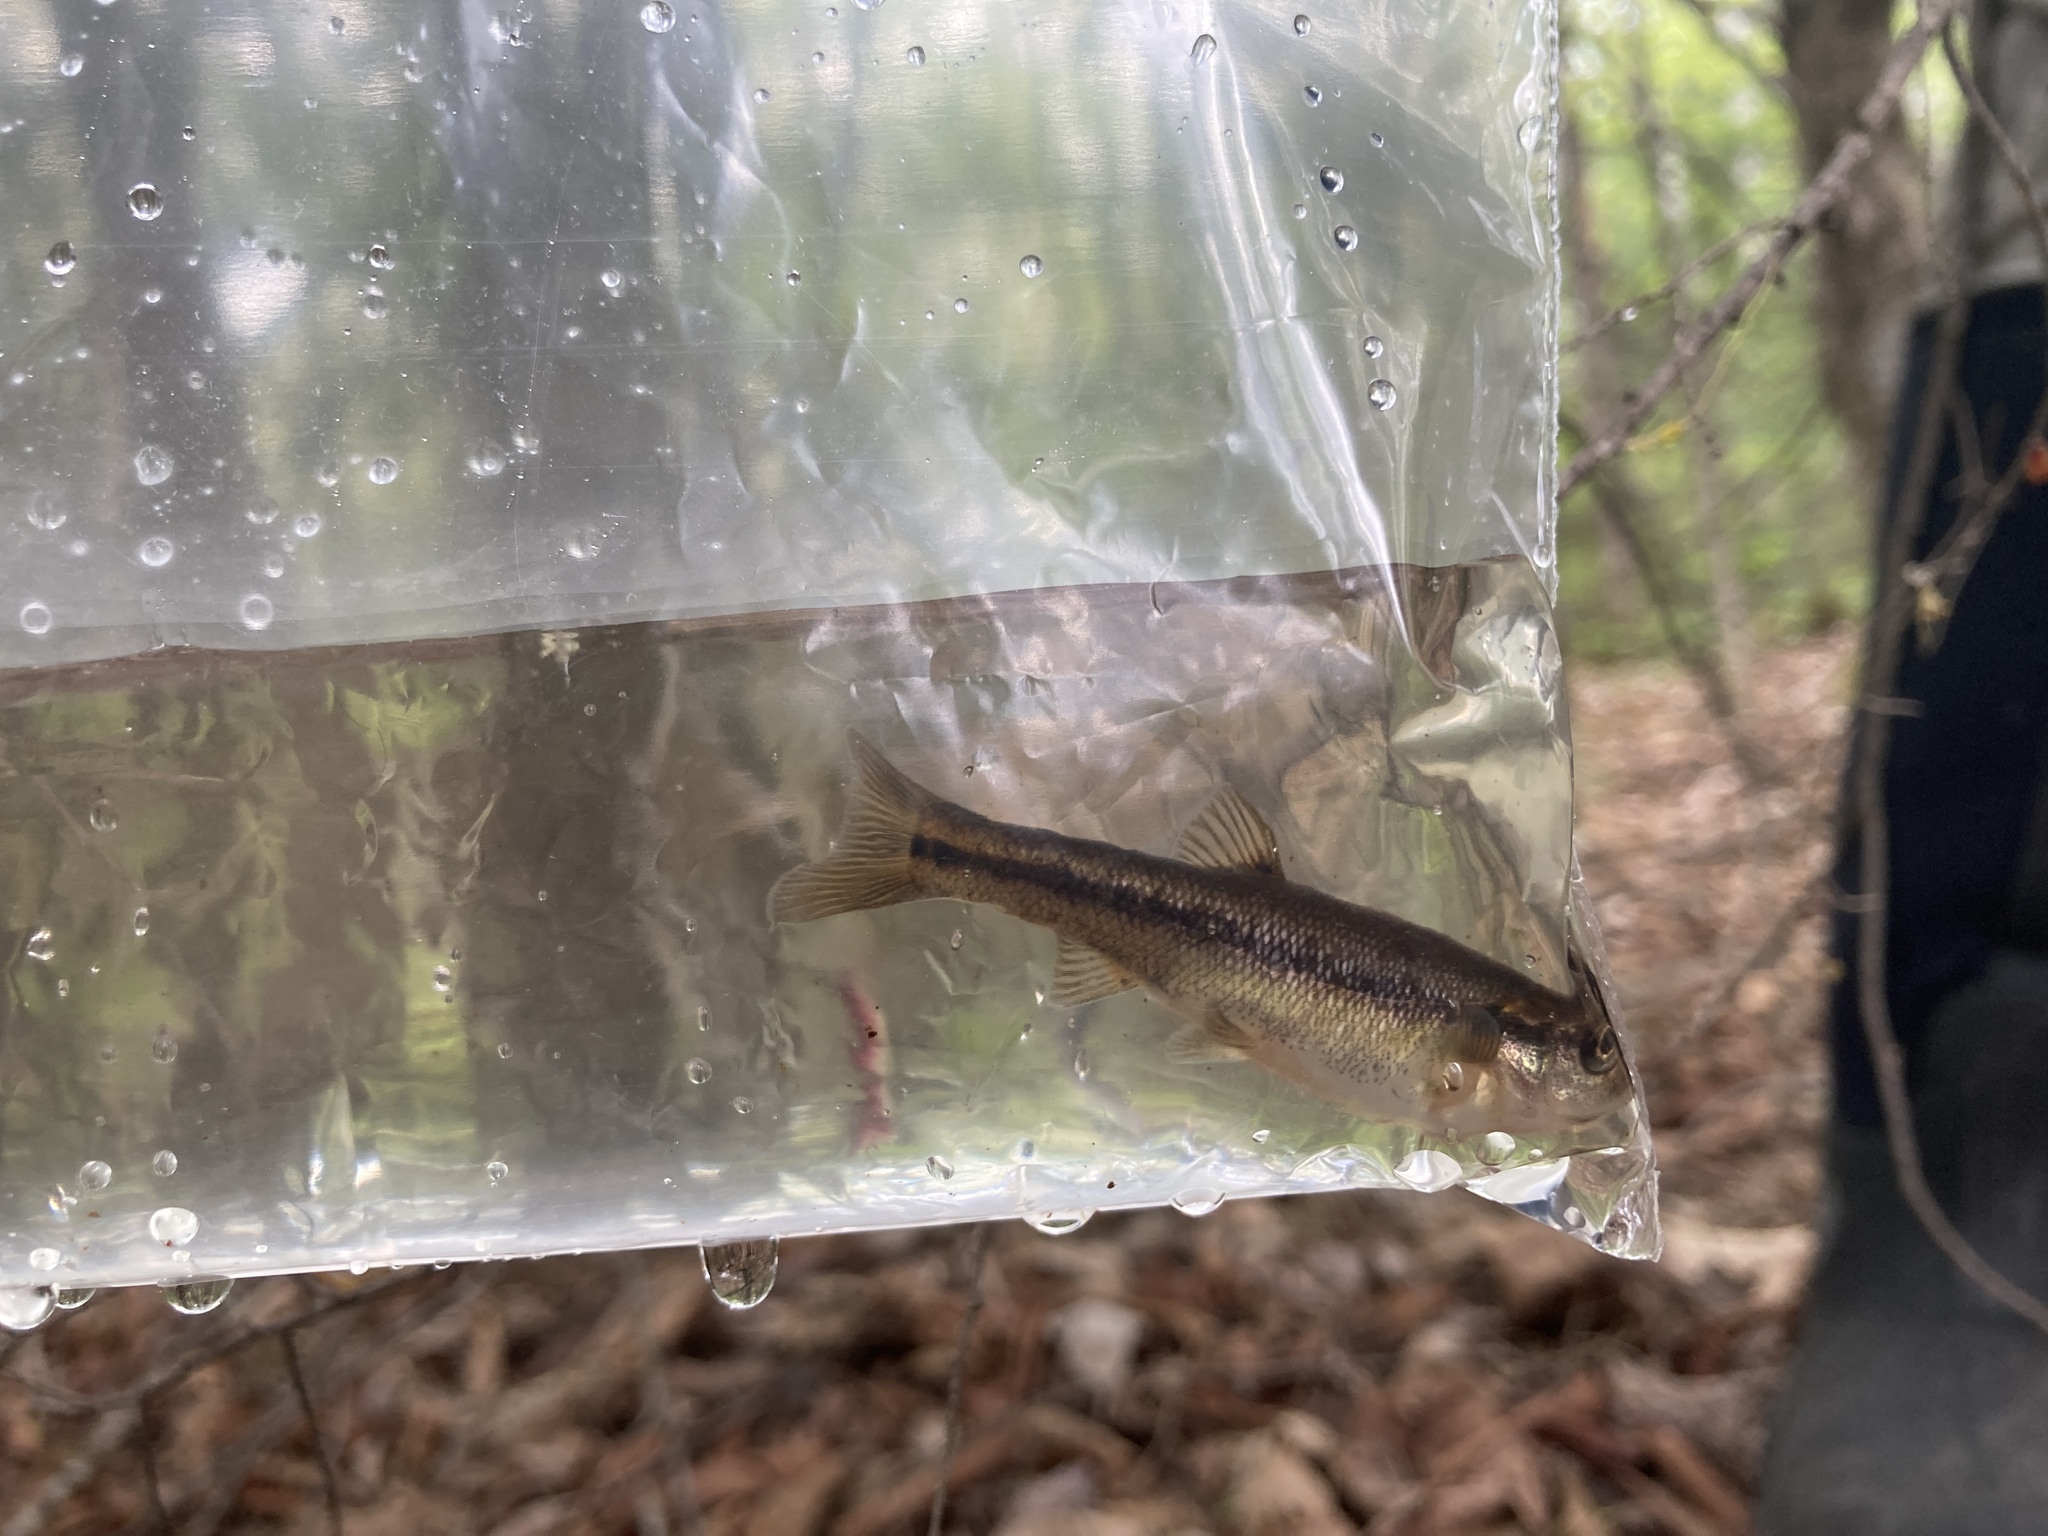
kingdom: Animalia
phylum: Chordata
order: Cypriniformes
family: Cyprinidae
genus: Semotilus
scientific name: Semotilus atromaculatus
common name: Creek chub
